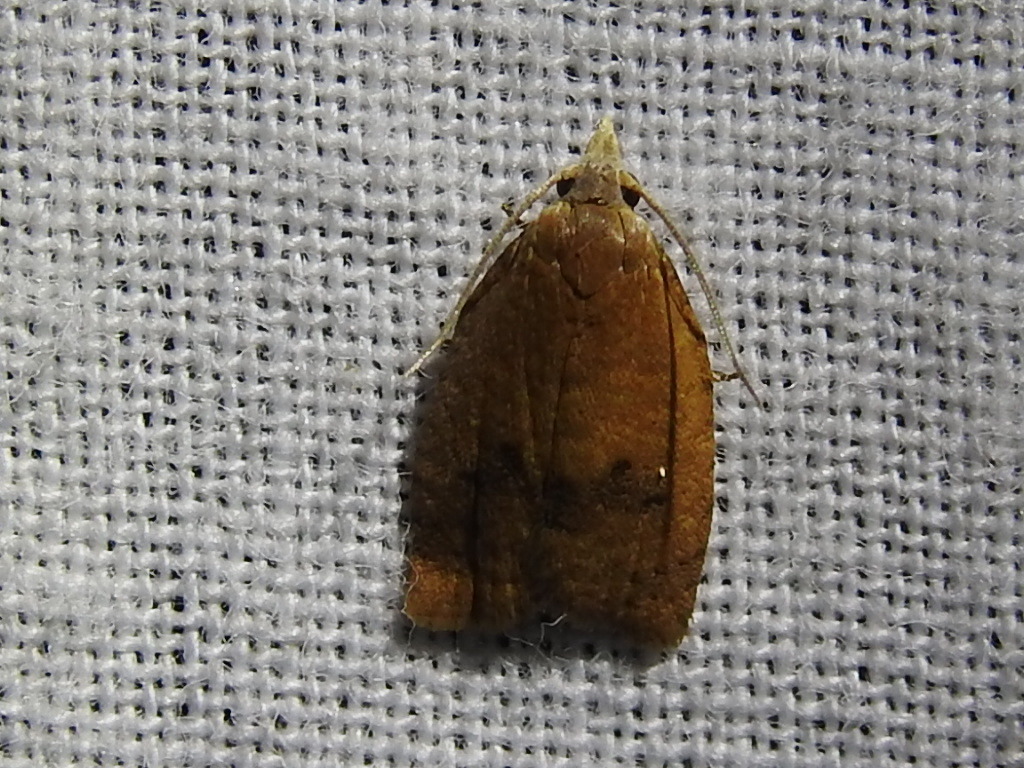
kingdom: Animalia
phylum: Arthropoda
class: Insecta
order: Lepidoptera
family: Tortricidae
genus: Sparganothoides
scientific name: Sparganothoides lentiginosana
